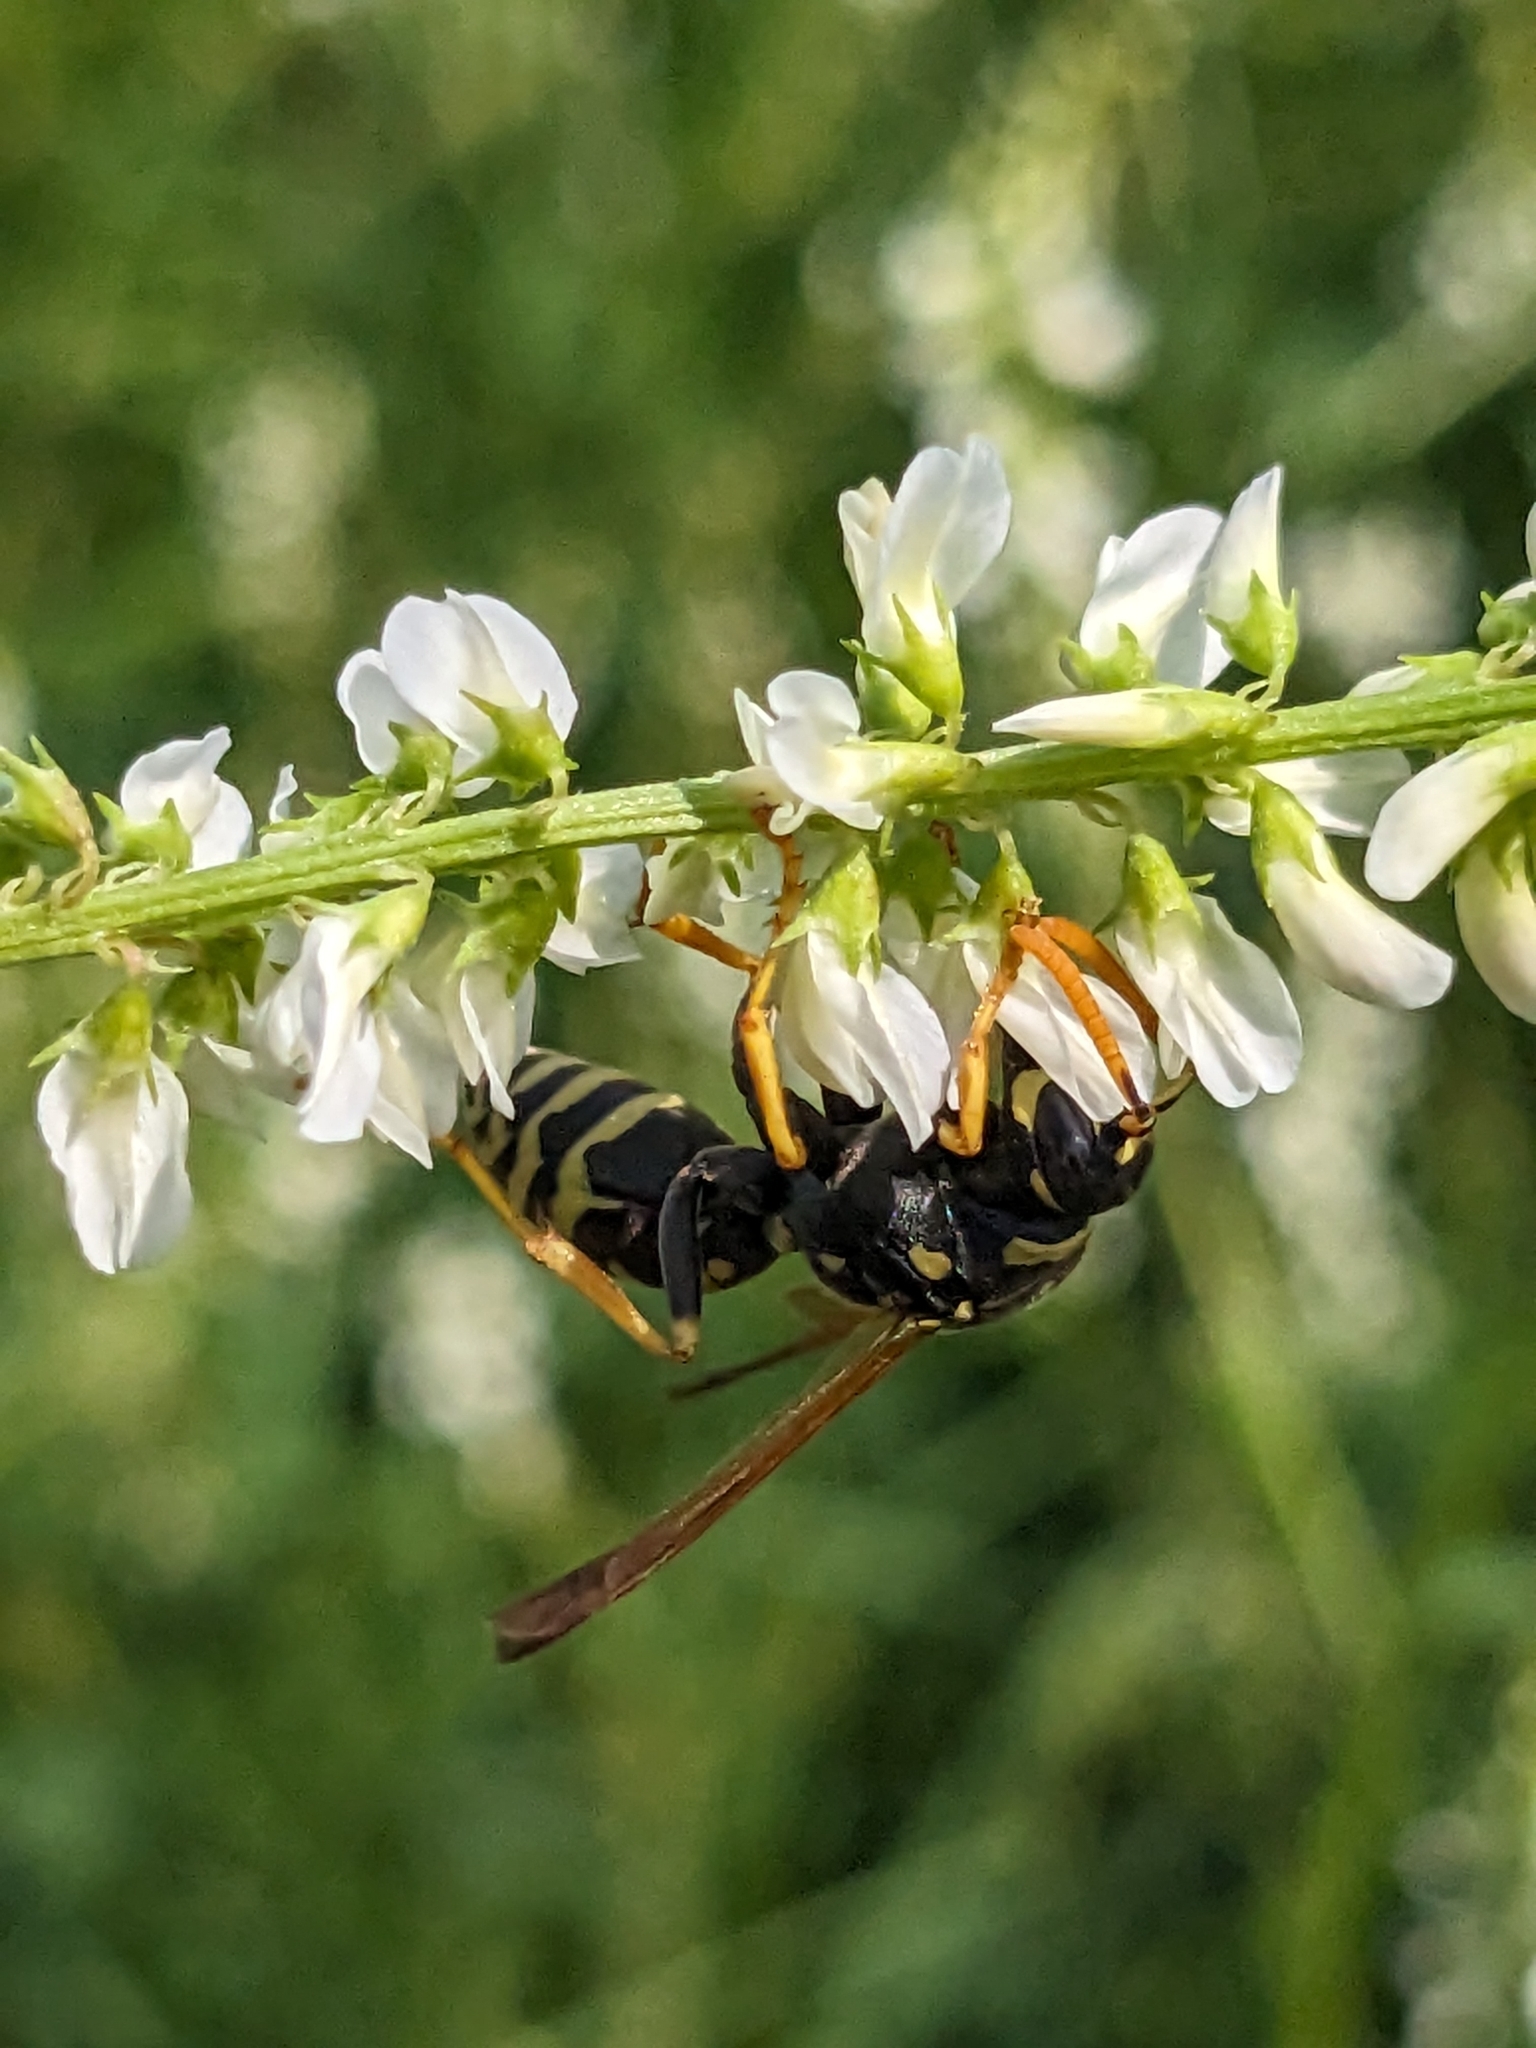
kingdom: Animalia
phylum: Arthropoda
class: Insecta
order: Hymenoptera
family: Eumenidae
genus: Polistes
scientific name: Polistes dominula
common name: Paper wasp
